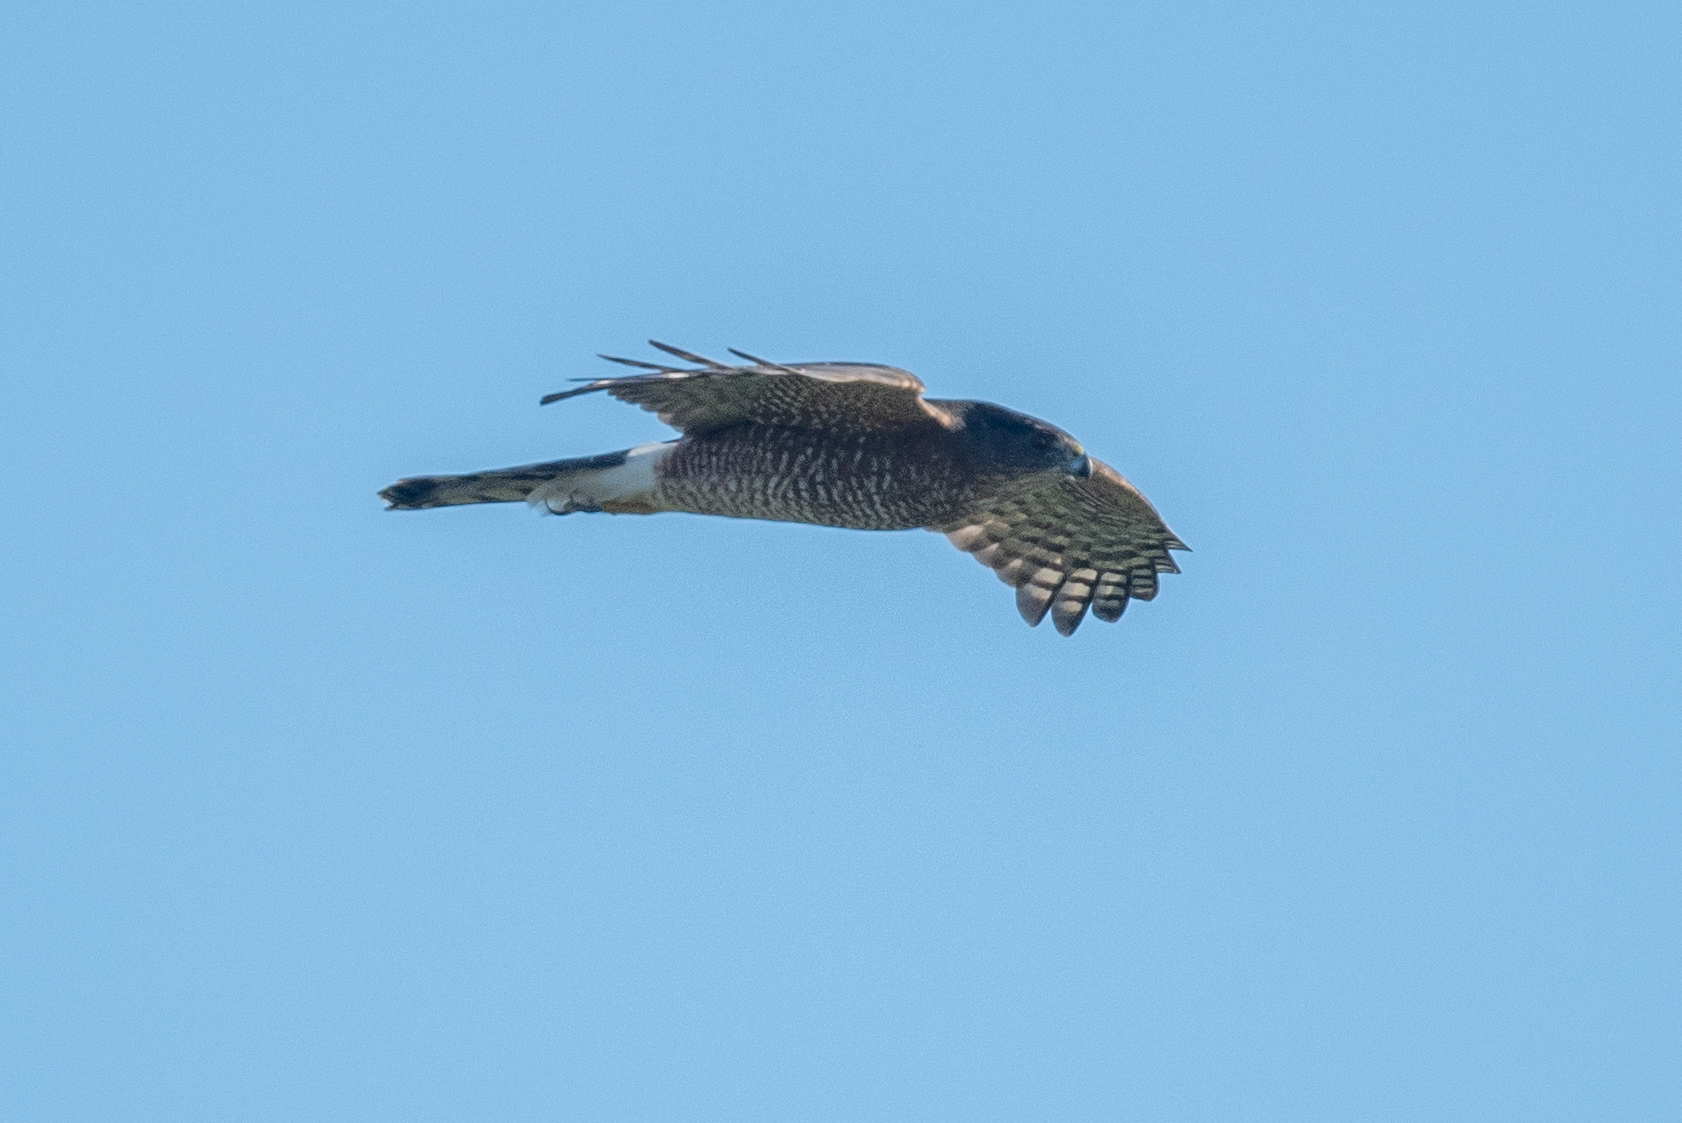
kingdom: Animalia
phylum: Chordata
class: Aves
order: Accipitriformes
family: Accipitridae
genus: Accipiter
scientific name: Accipiter cooperii
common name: Cooper's hawk
